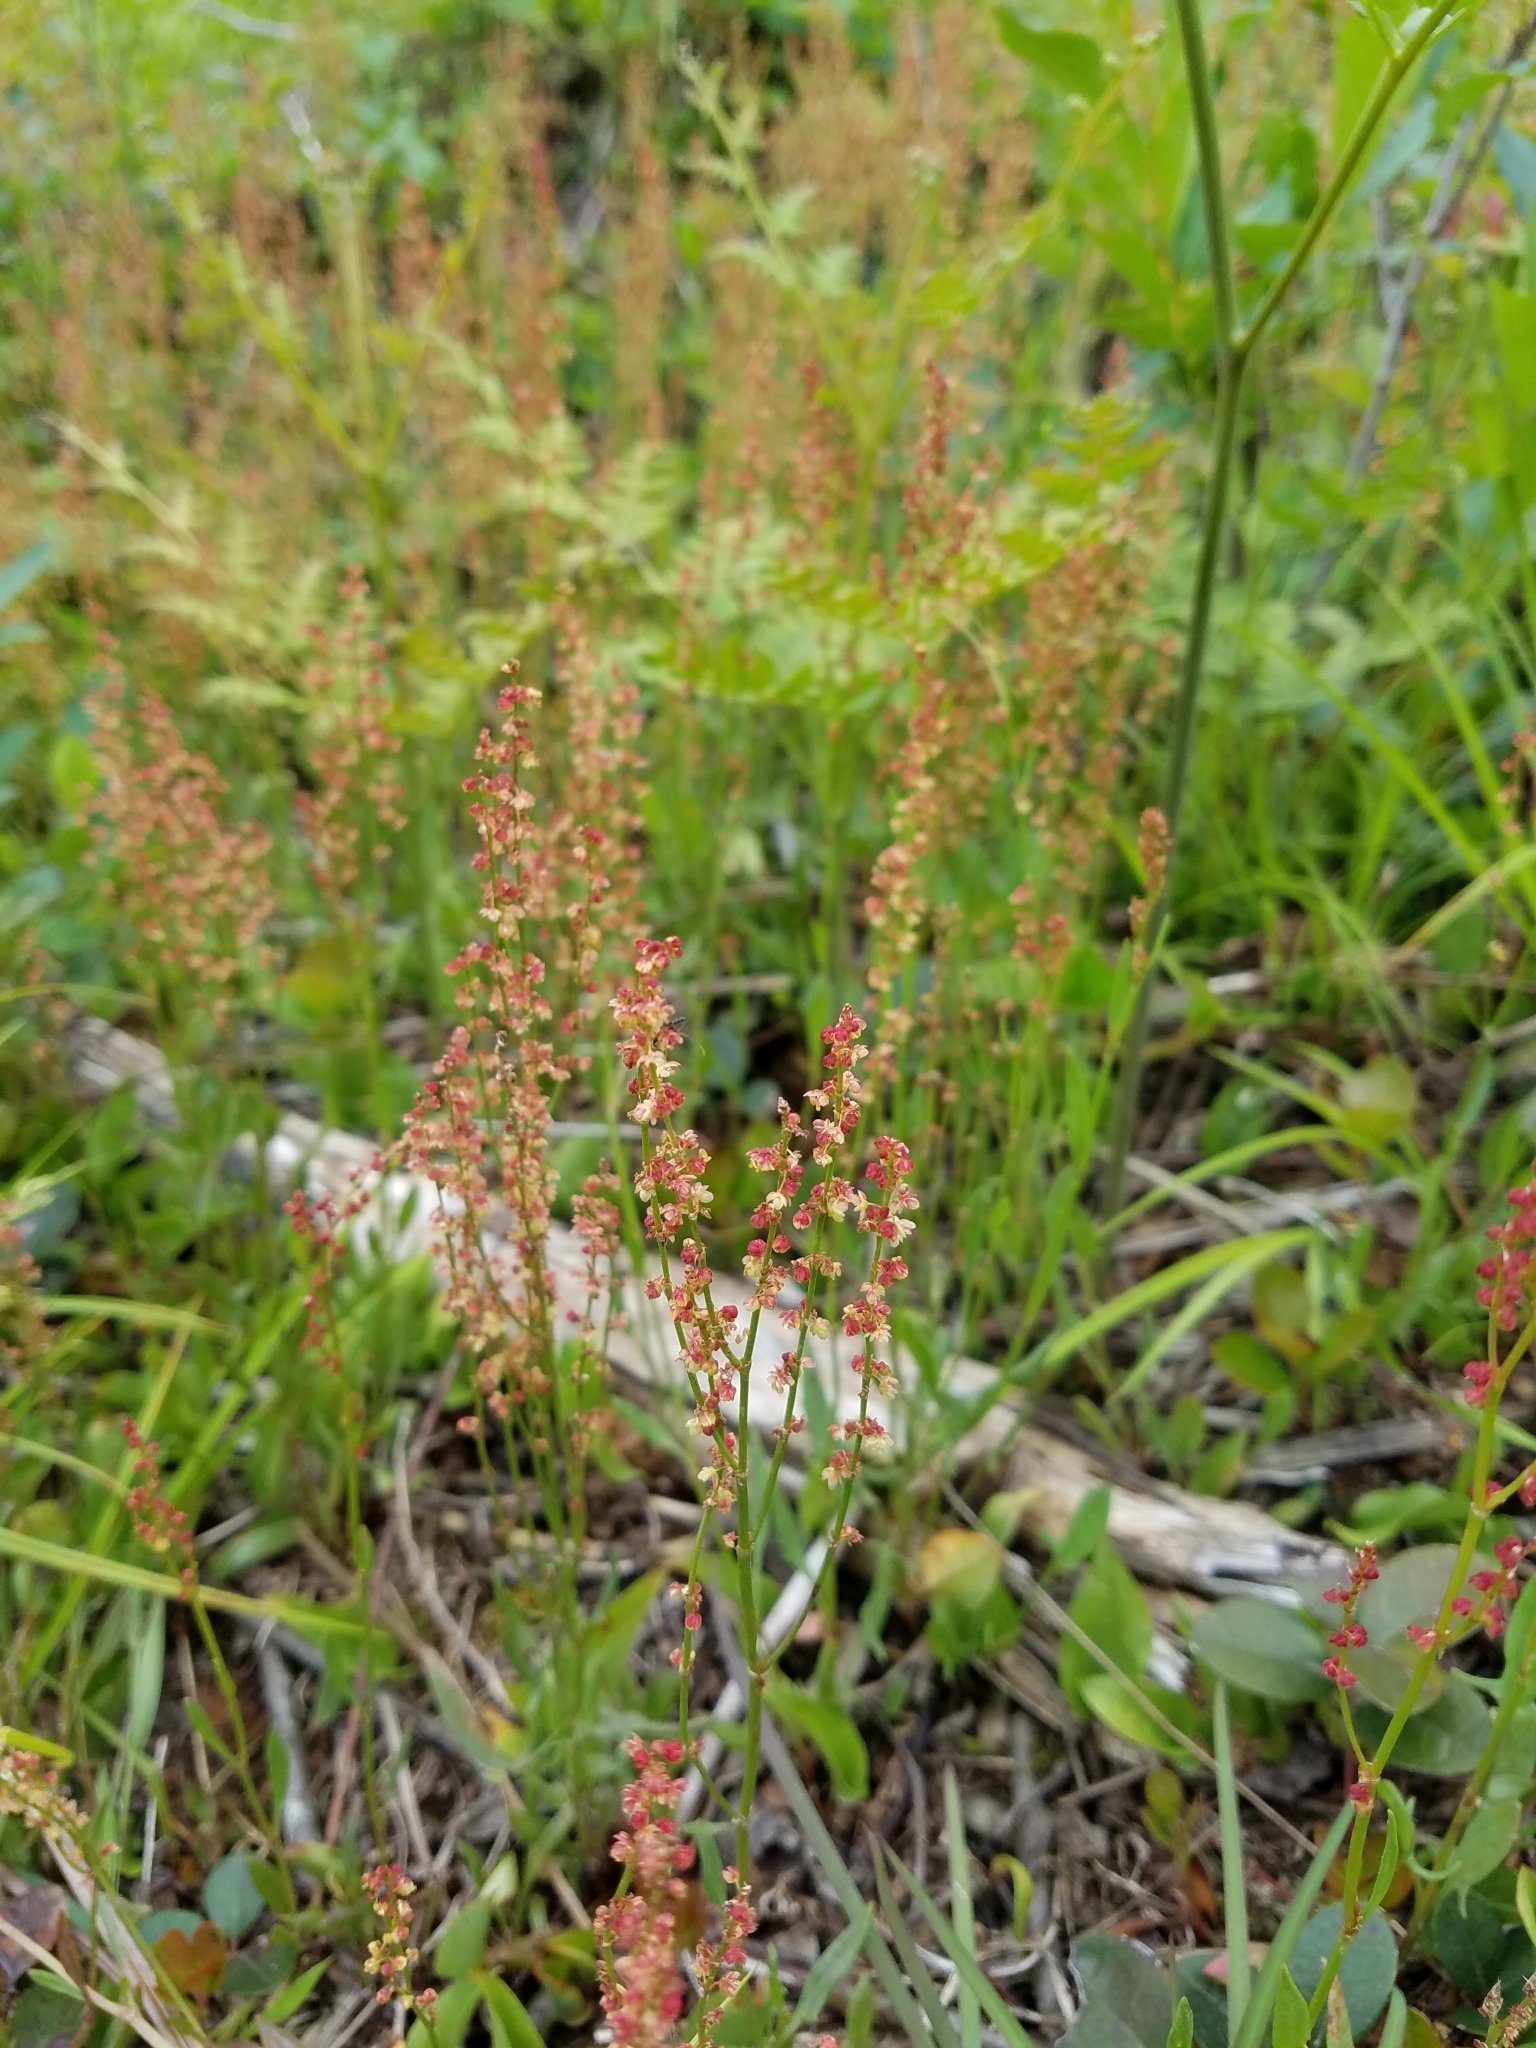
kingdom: Plantae
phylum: Tracheophyta
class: Magnoliopsida
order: Caryophyllales
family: Polygonaceae
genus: Rumex
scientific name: Rumex acetosella
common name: Common sheep sorrel
